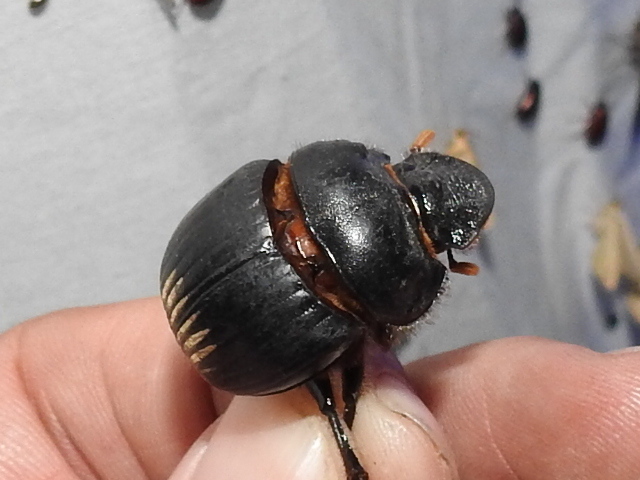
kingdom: Animalia
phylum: Arthropoda
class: Insecta
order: Coleoptera
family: Scarabaeidae
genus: Dichotomius
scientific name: Dichotomius colonicus
